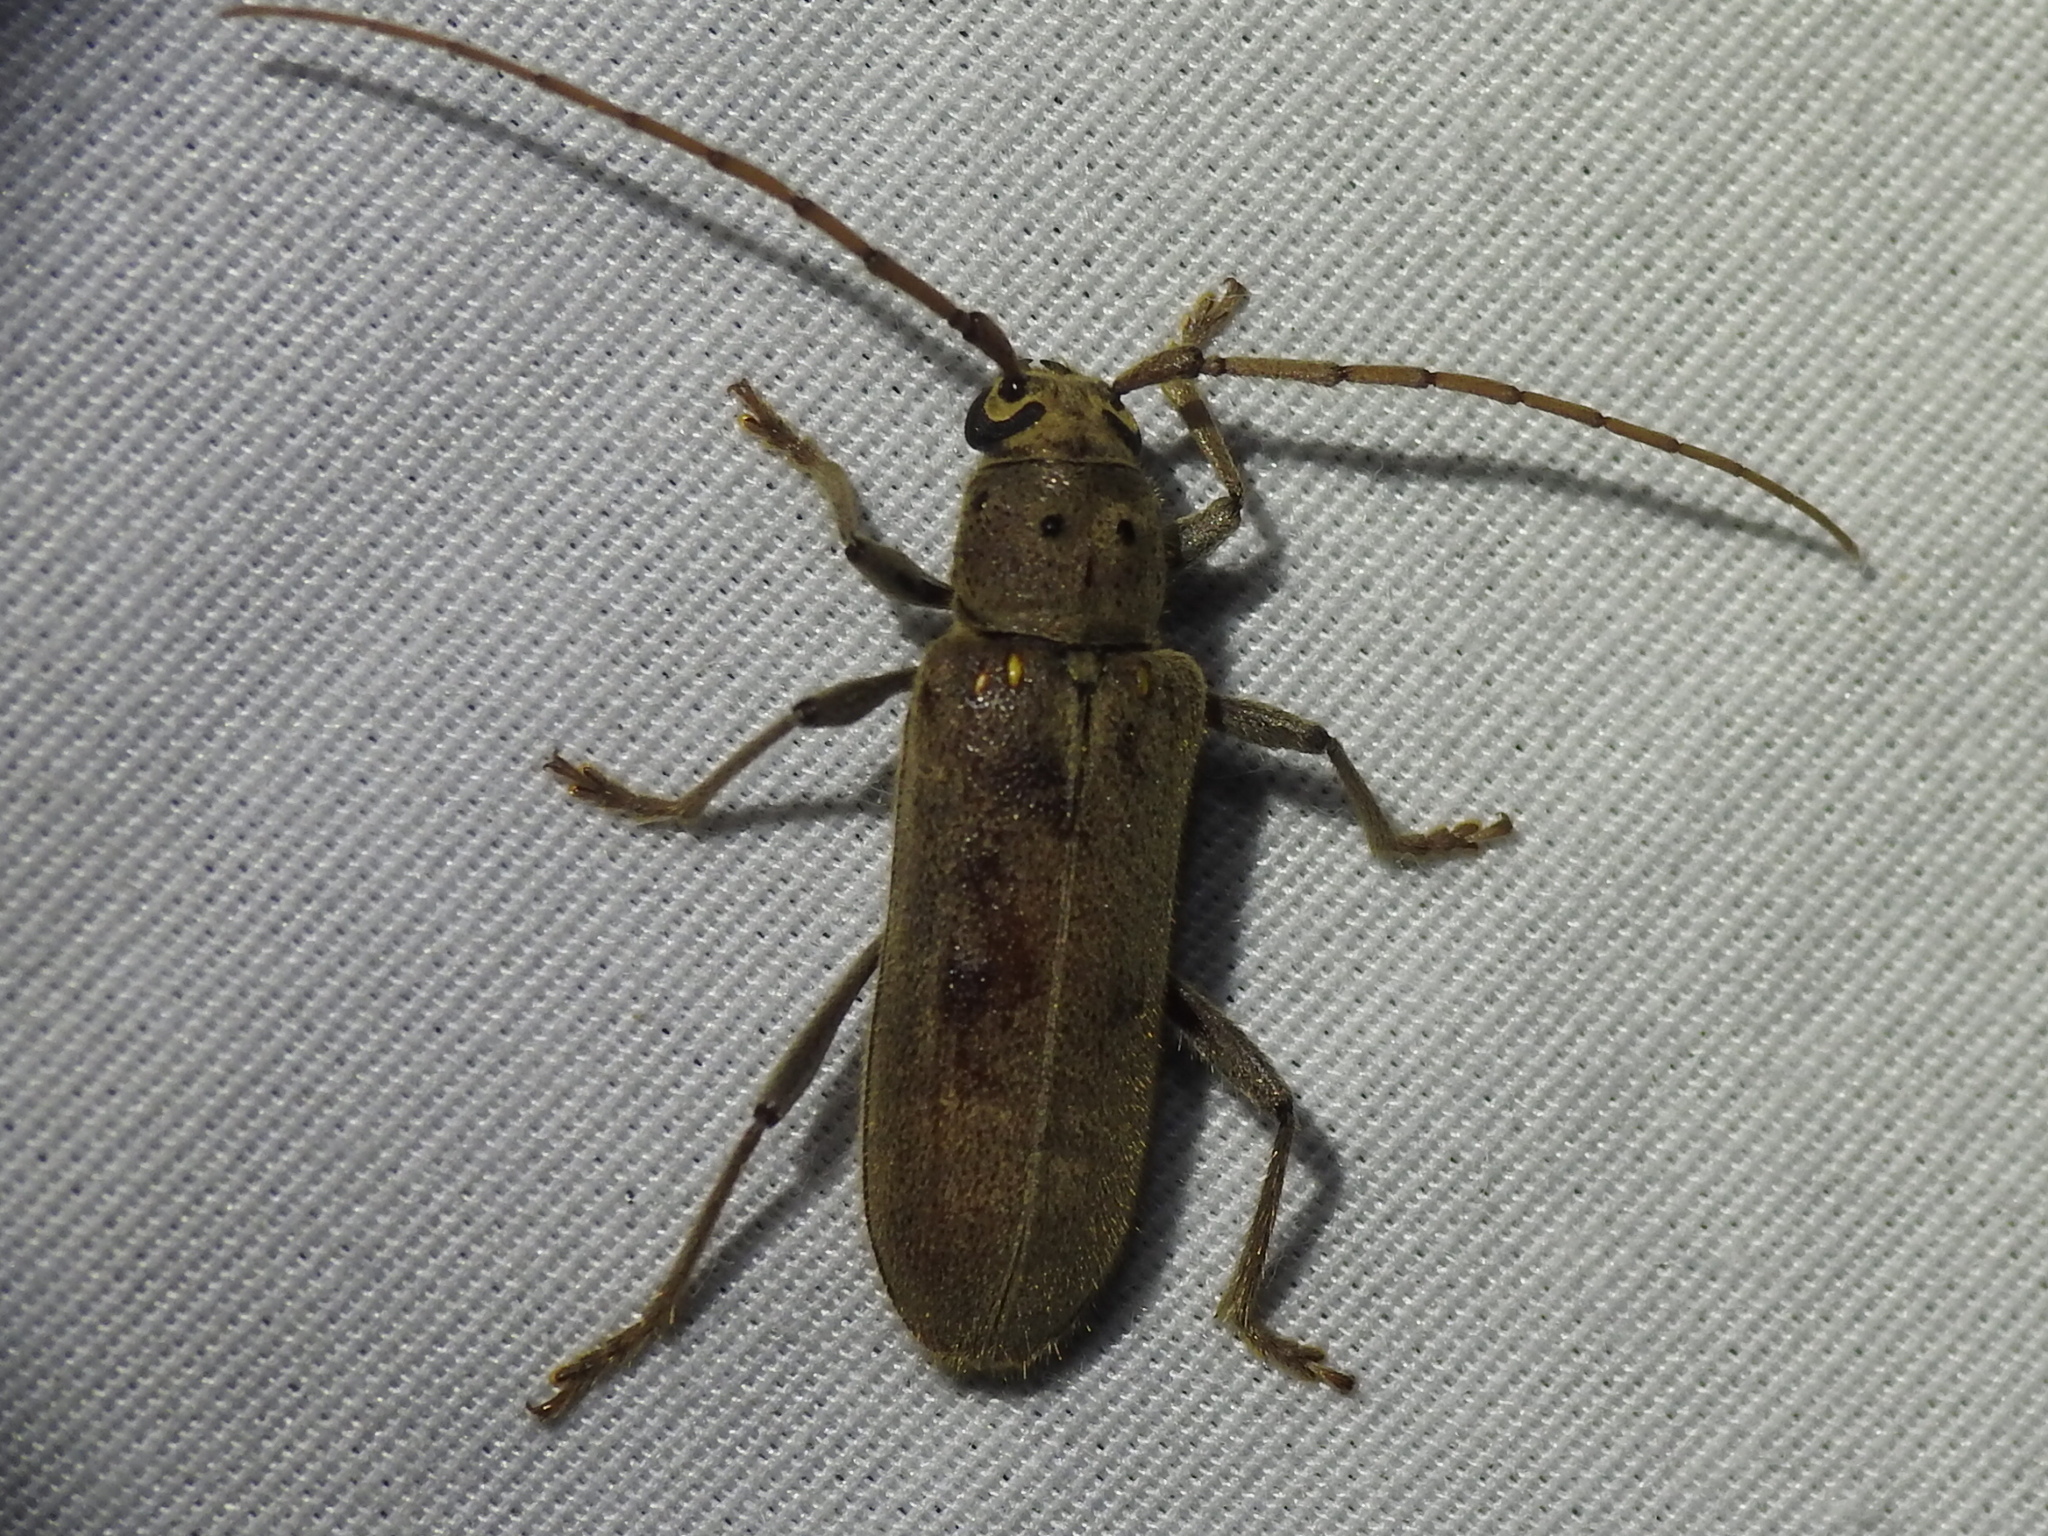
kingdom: Animalia
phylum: Arthropoda
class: Insecta
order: Coleoptera
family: Cerambycidae
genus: Eburia
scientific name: Eburia mutica
